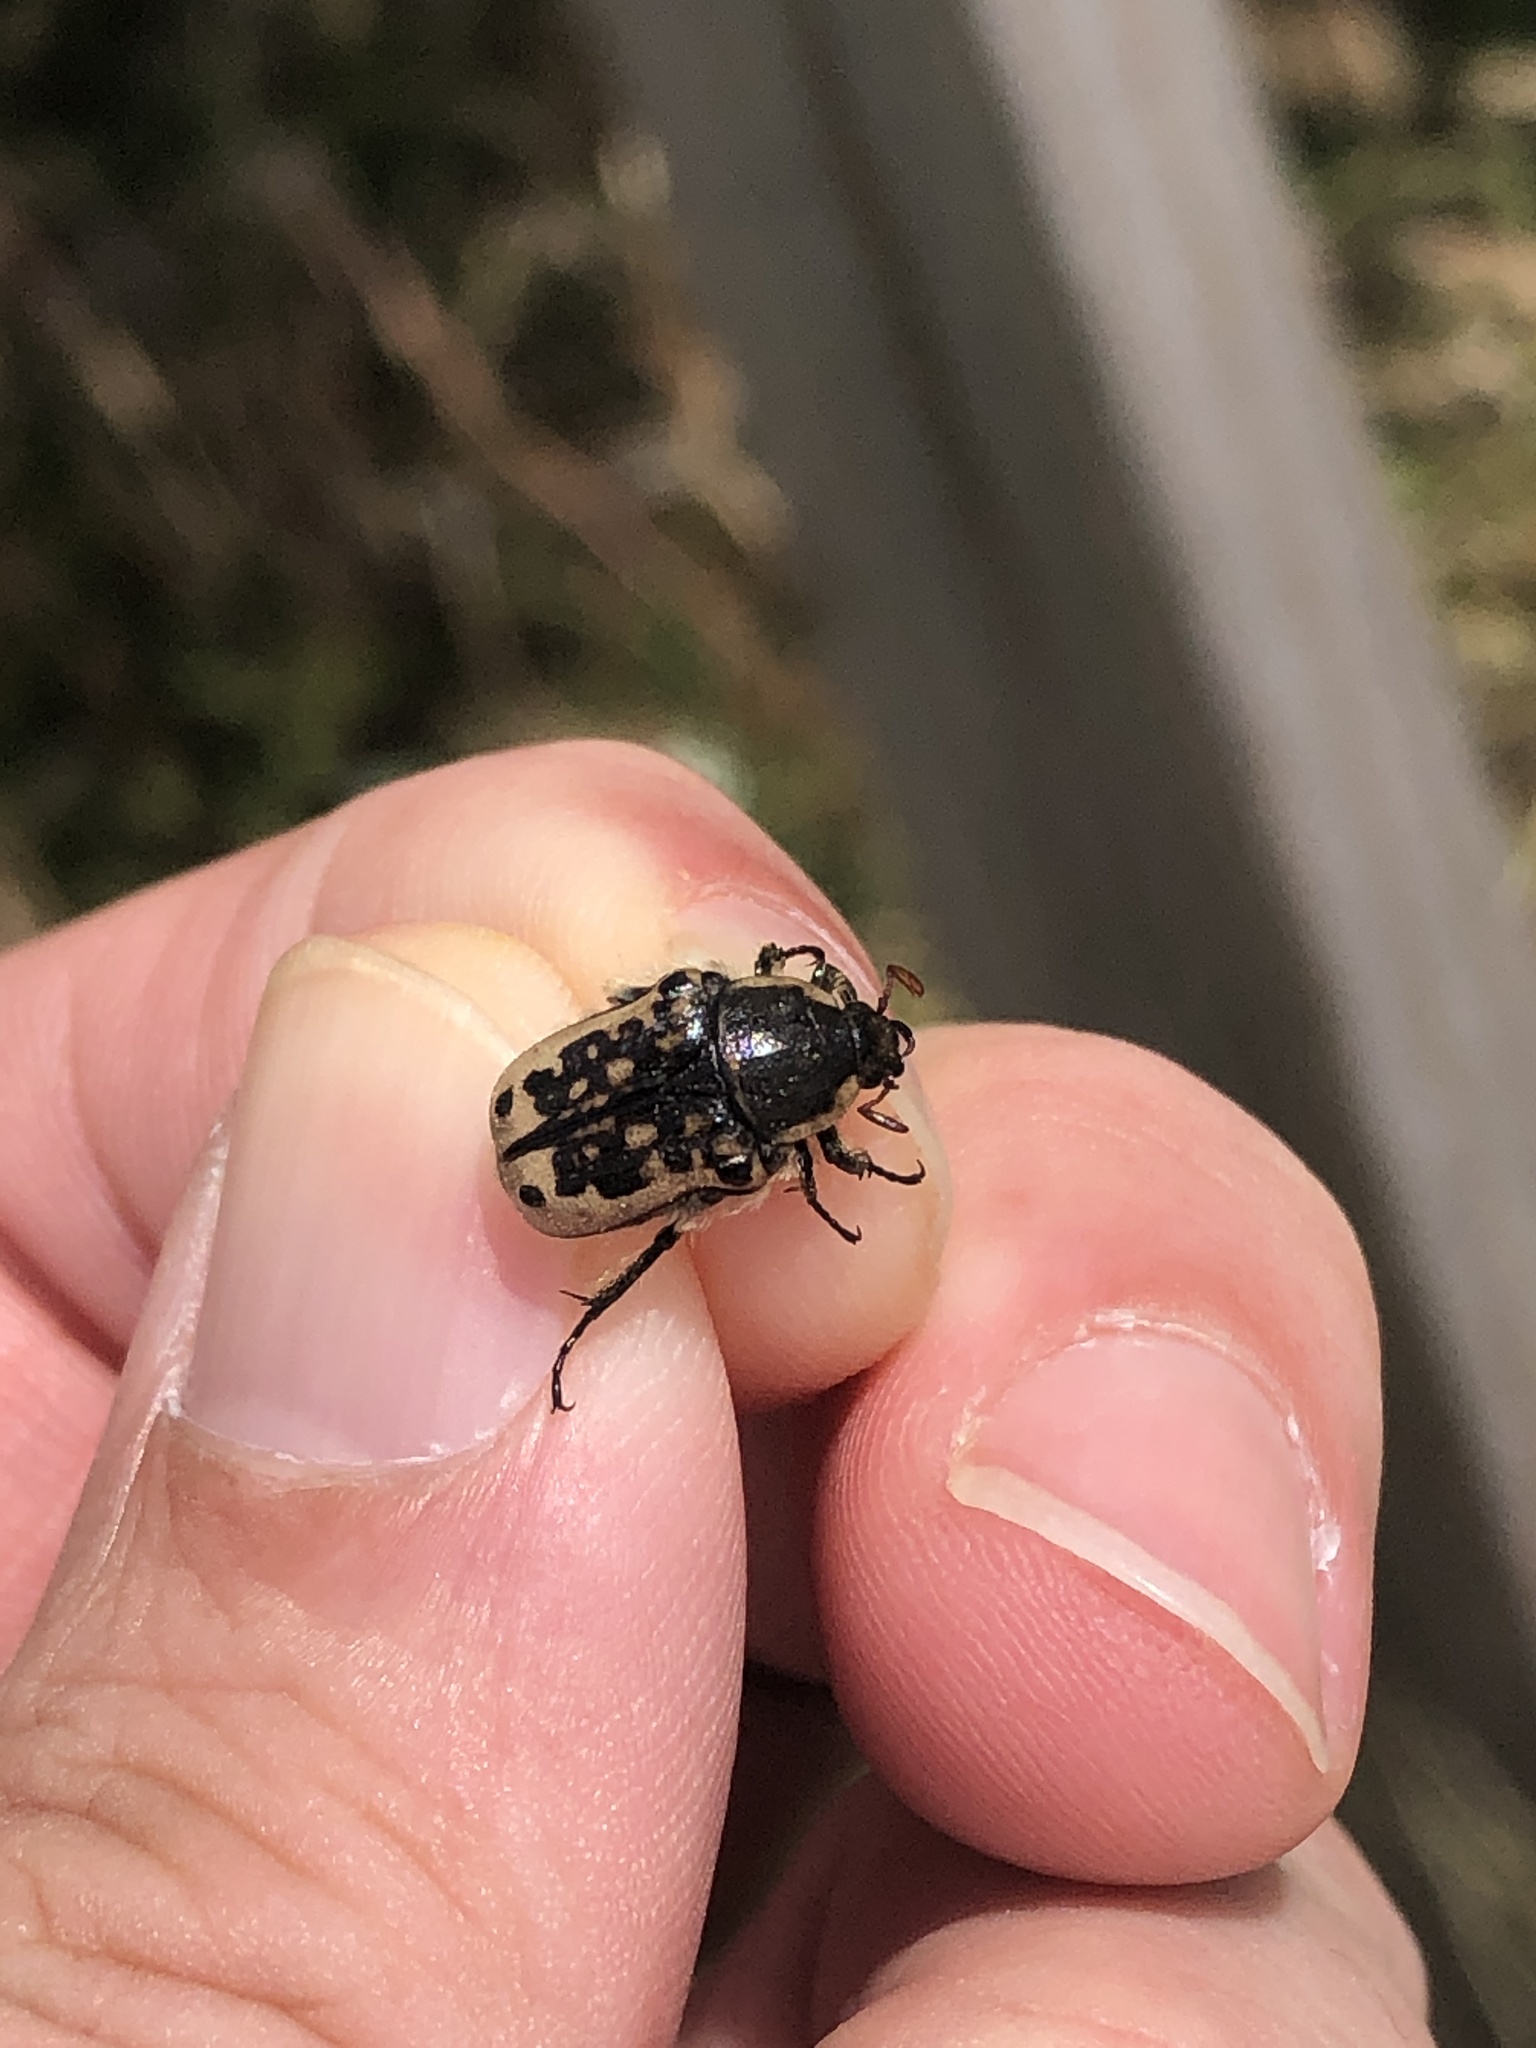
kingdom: Animalia
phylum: Arthropoda
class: Insecta
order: Coleoptera
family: Scarabaeidae
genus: Euphoria
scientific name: Euphoria kernii
